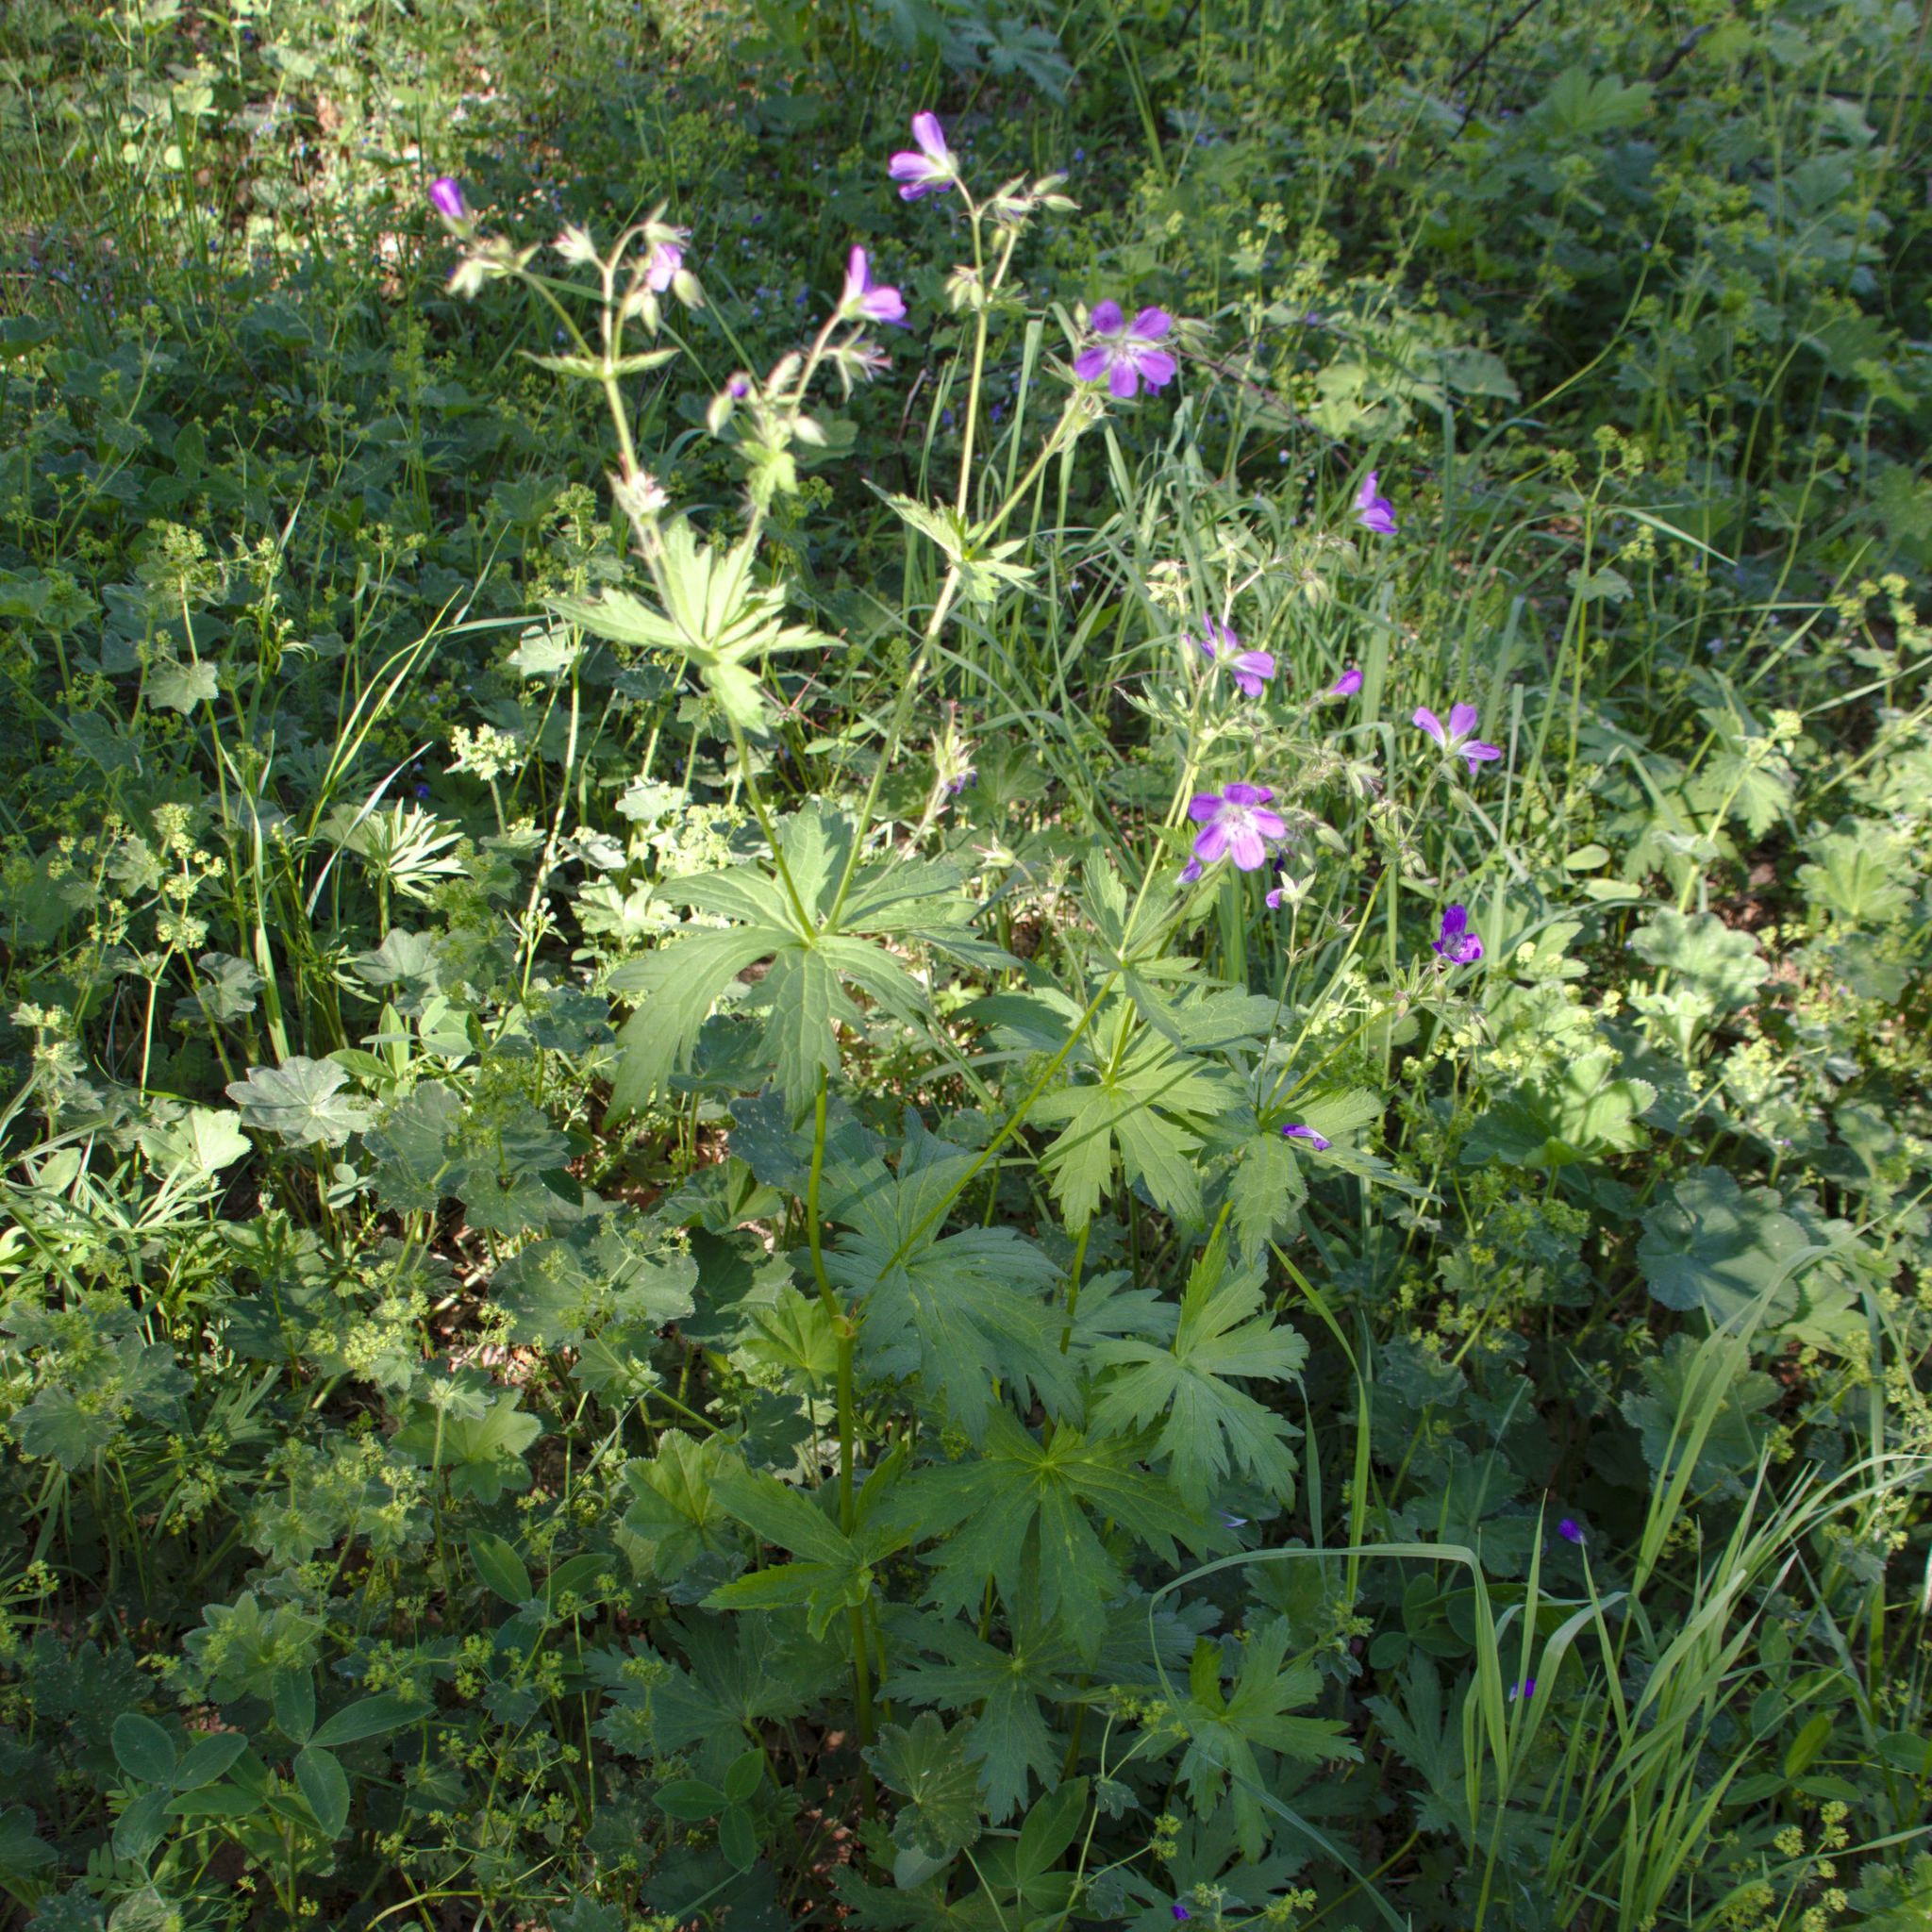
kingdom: Plantae
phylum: Tracheophyta
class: Magnoliopsida
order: Geraniales
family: Geraniaceae
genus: Geranium
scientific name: Geranium sylvaticum
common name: Wood crane's-bill
